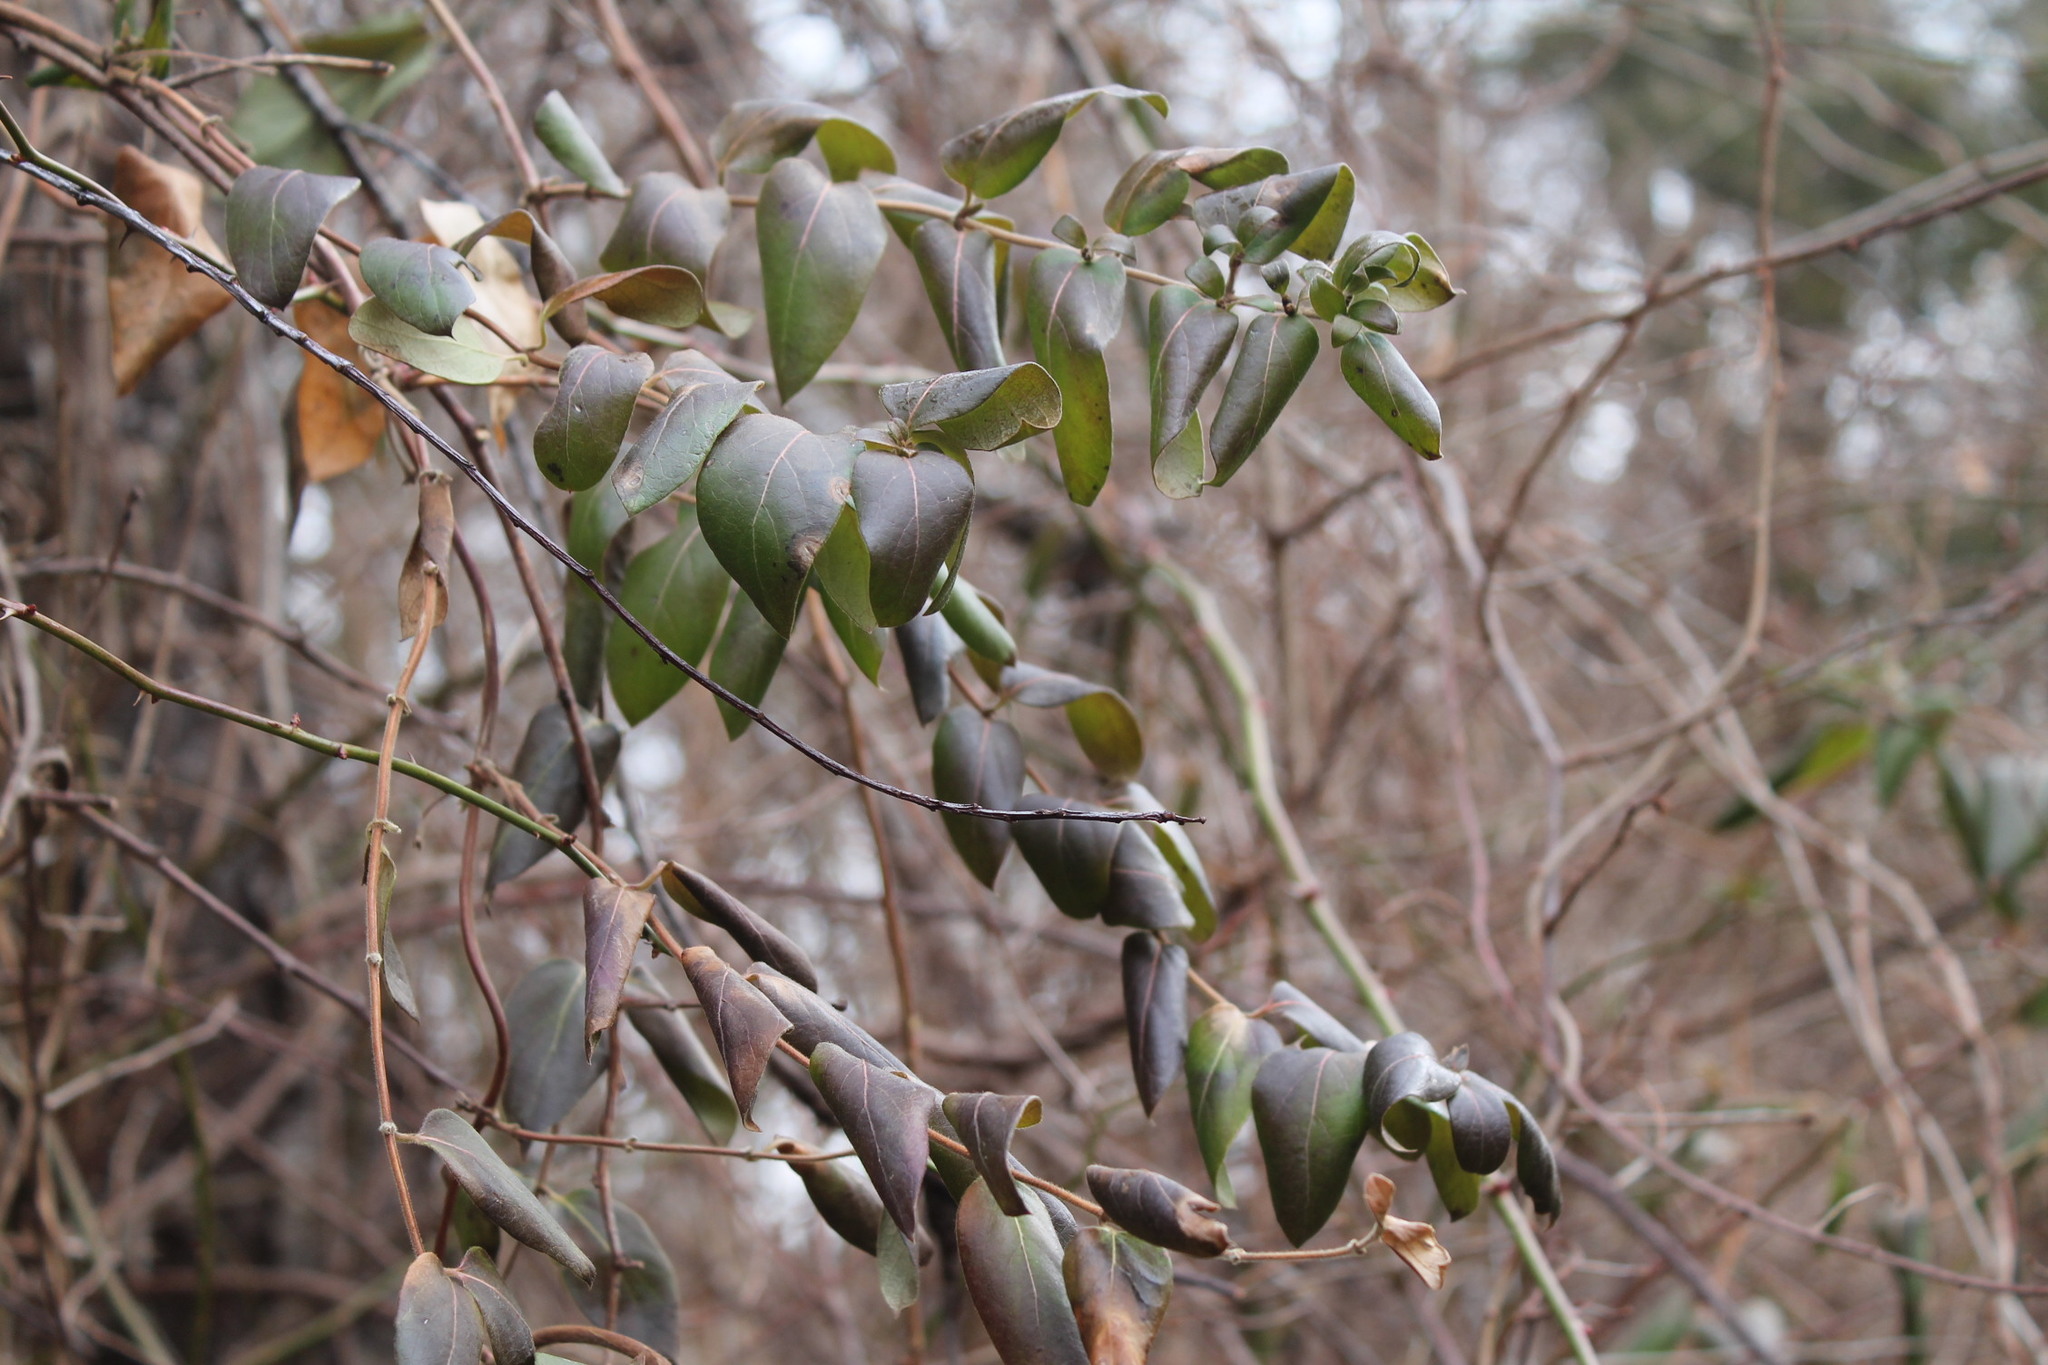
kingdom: Plantae
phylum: Tracheophyta
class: Magnoliopsida
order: Dipsacales
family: Caprifoliaceae
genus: Lonicera
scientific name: Lonicera japonica
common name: Japanese honeysuckle
